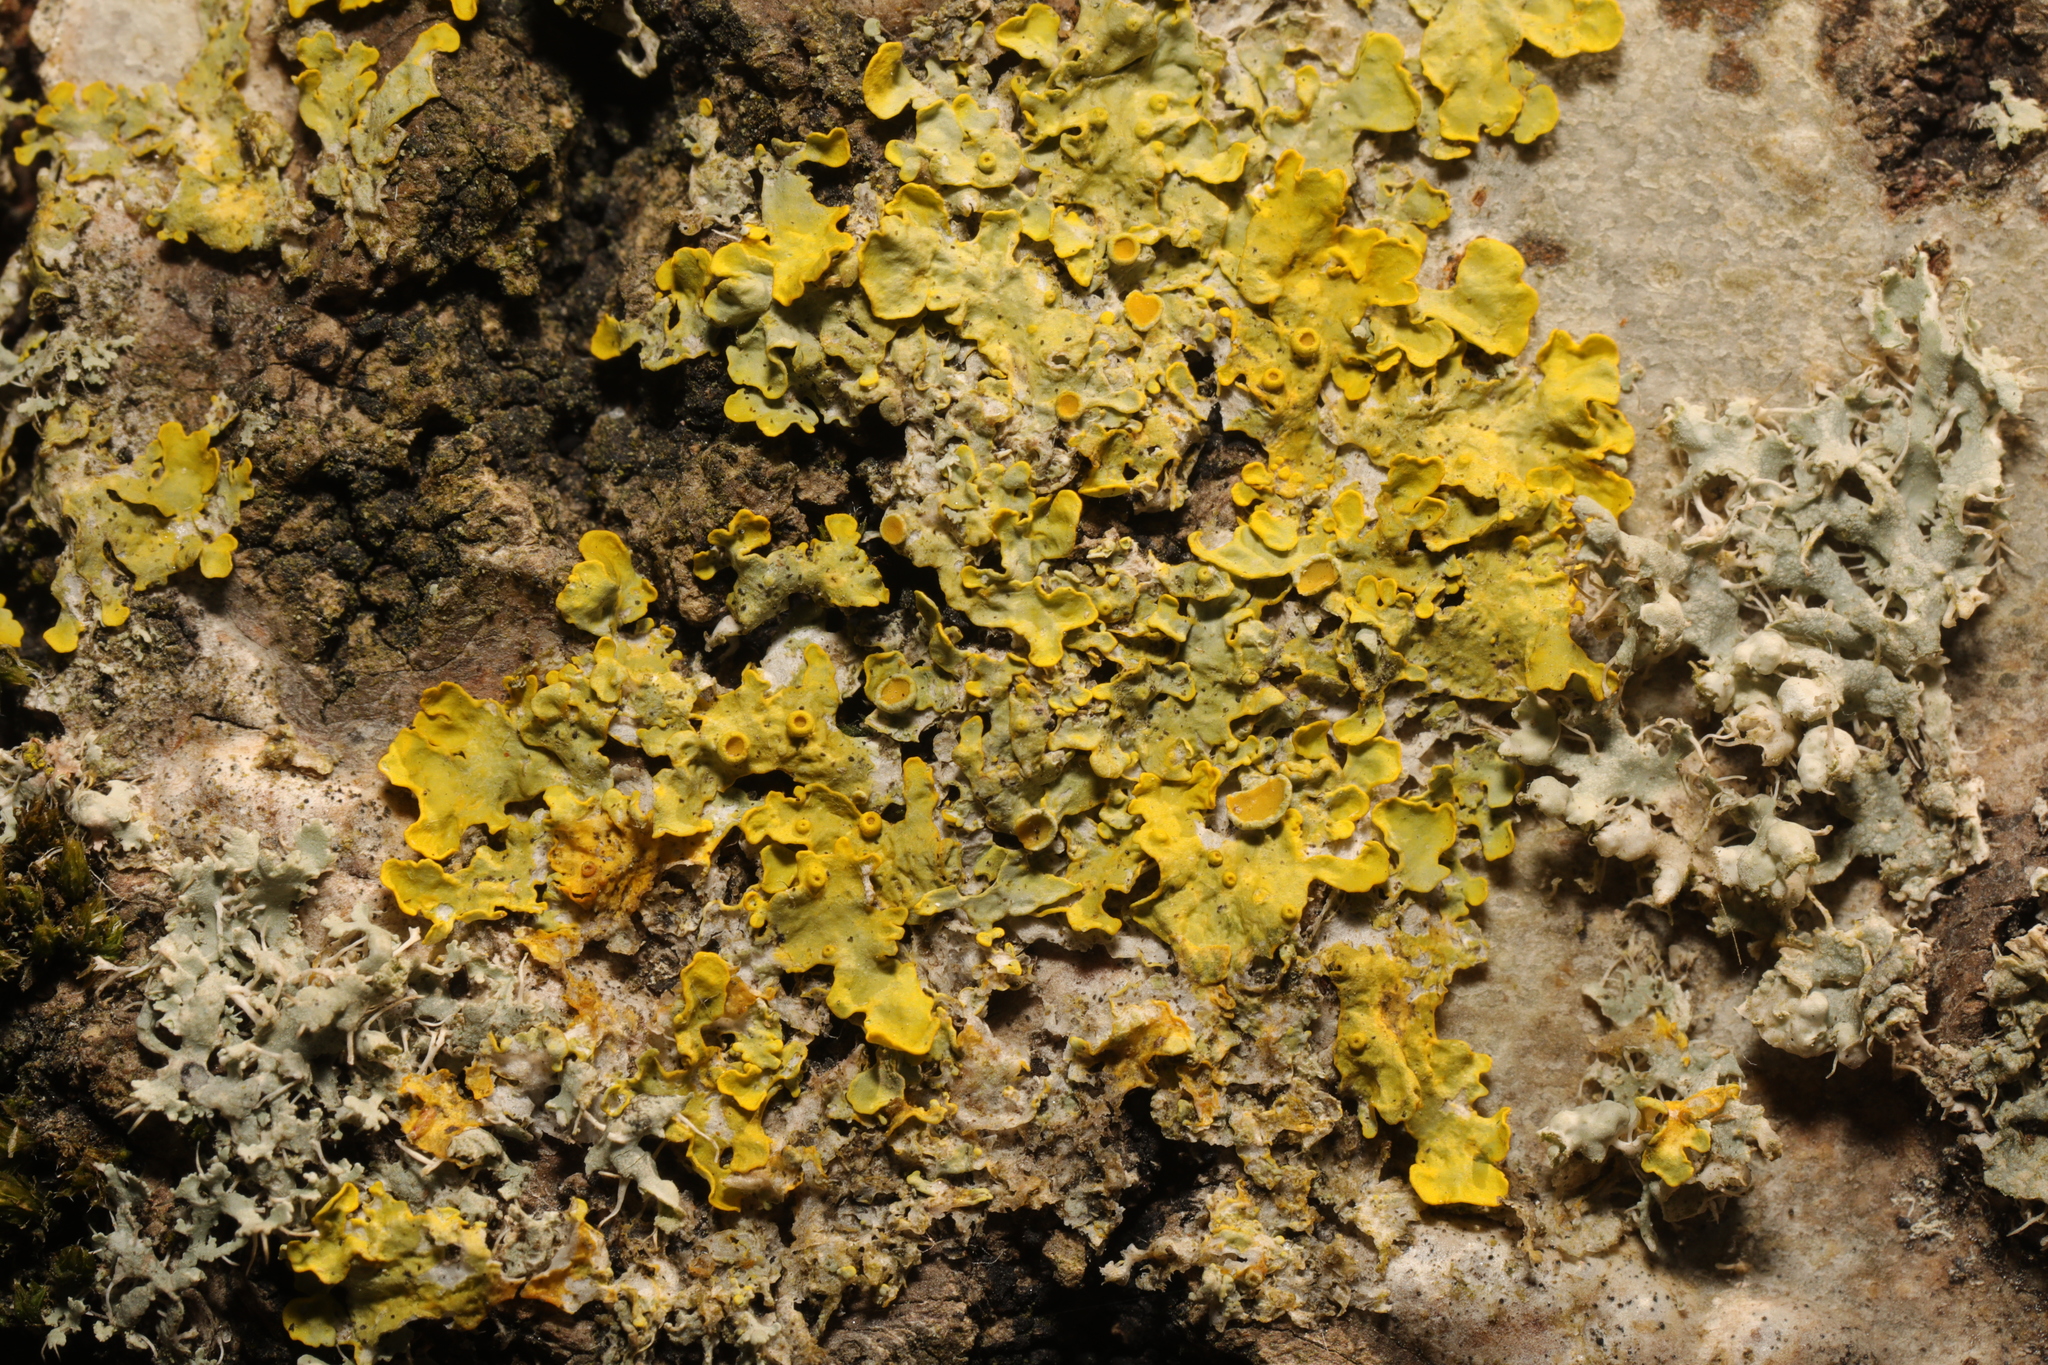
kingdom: Fungi
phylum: Ascomycota
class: Lecanoromycetes
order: Teloschistales
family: Teloschistaceae
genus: Xanthoria
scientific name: Xanthoria parietina
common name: Common orange lichen
